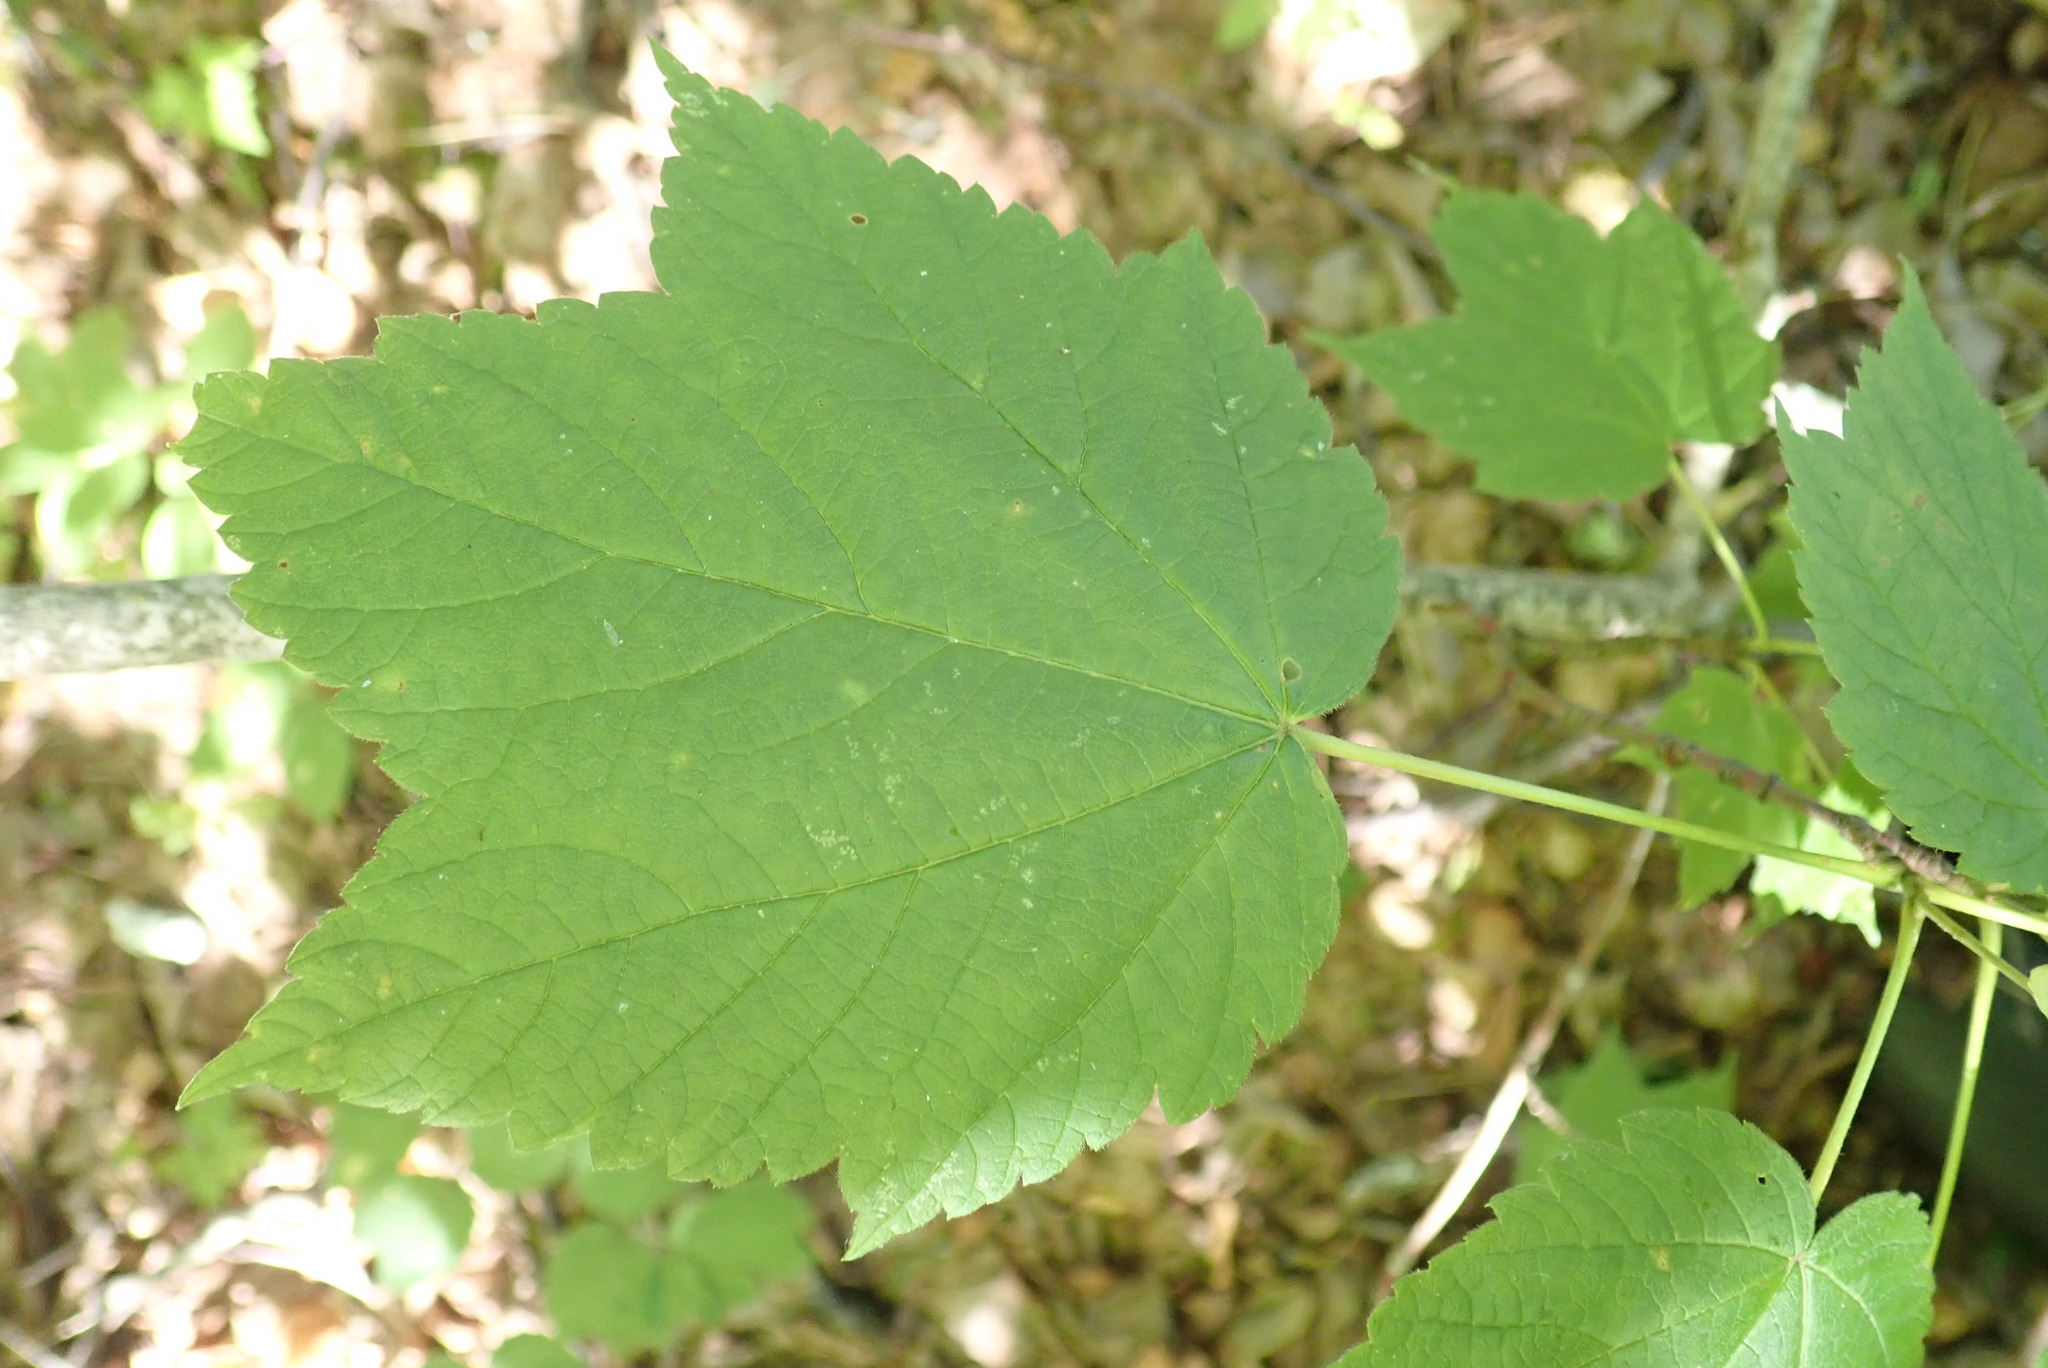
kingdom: Plantae
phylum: Tracheophyta
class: Magnoliopsida
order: Sapindales
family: Sapindaceae
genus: Acer
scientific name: Acer spicatum
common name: Mountain maple
